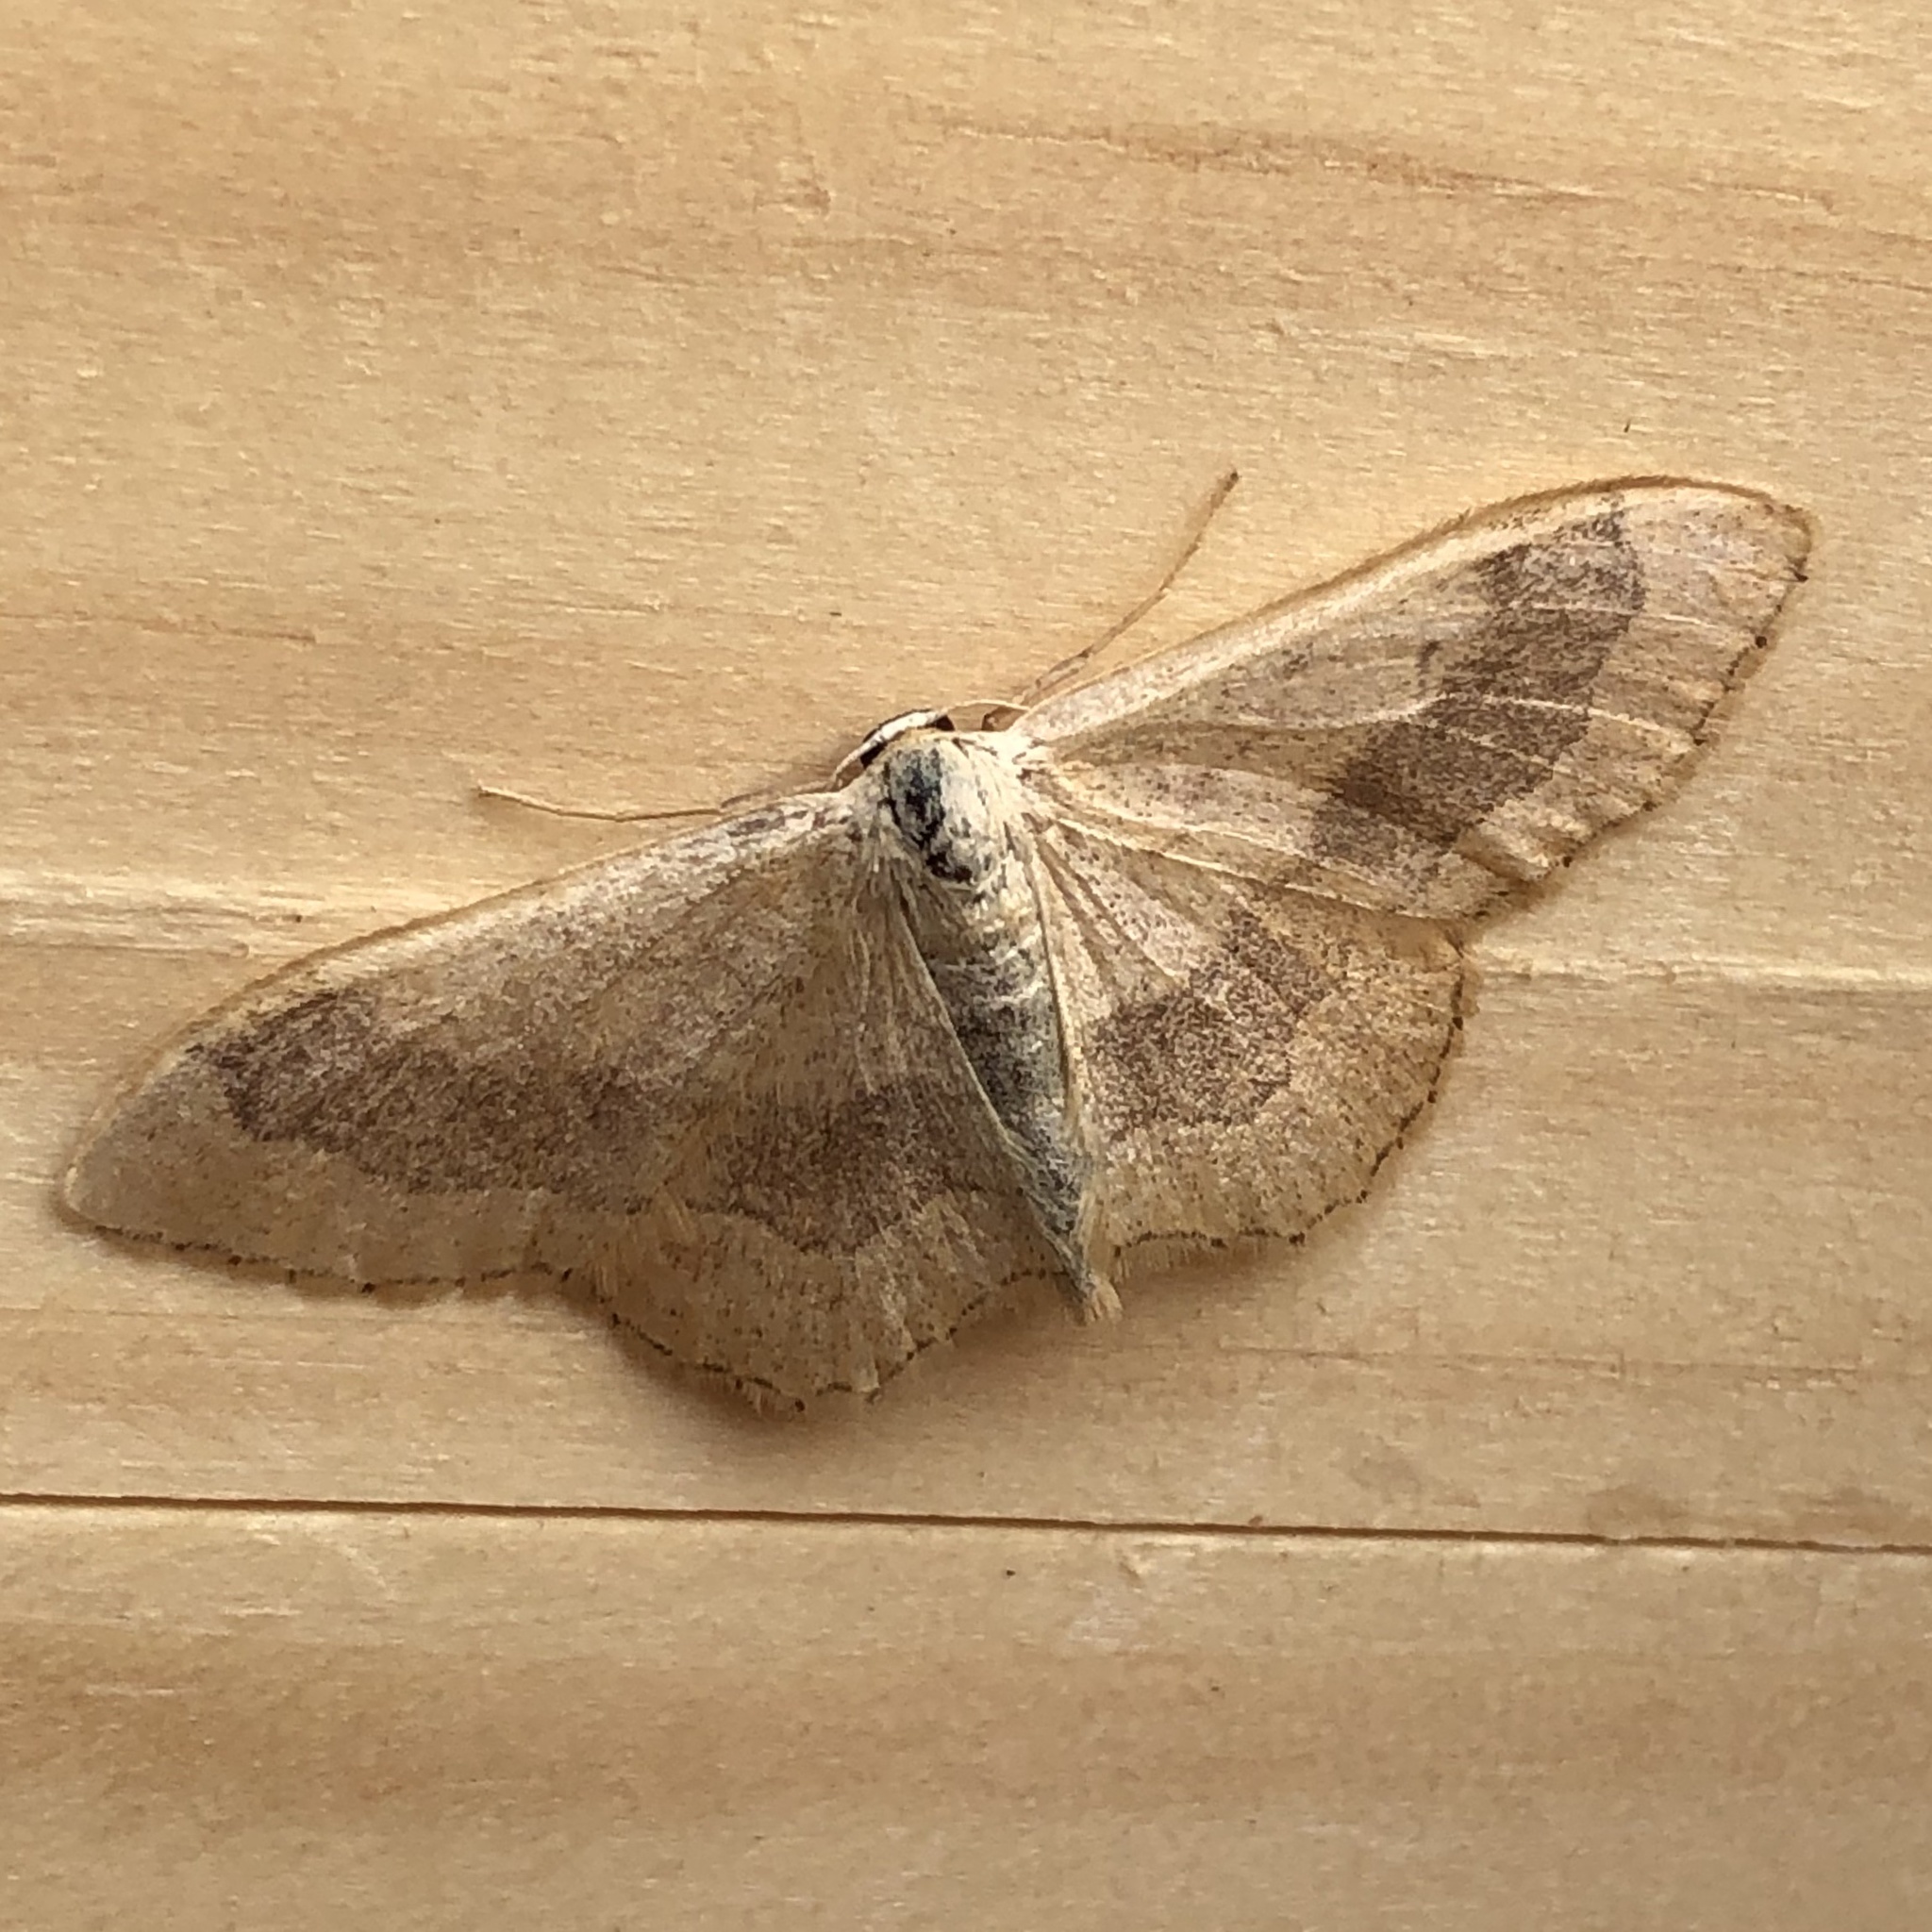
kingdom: Animalia
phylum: Arthropoda
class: Insecta
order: Lepidoptera
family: Geometridae
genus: Idaea
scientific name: Idaea aversata
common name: Riband wave
